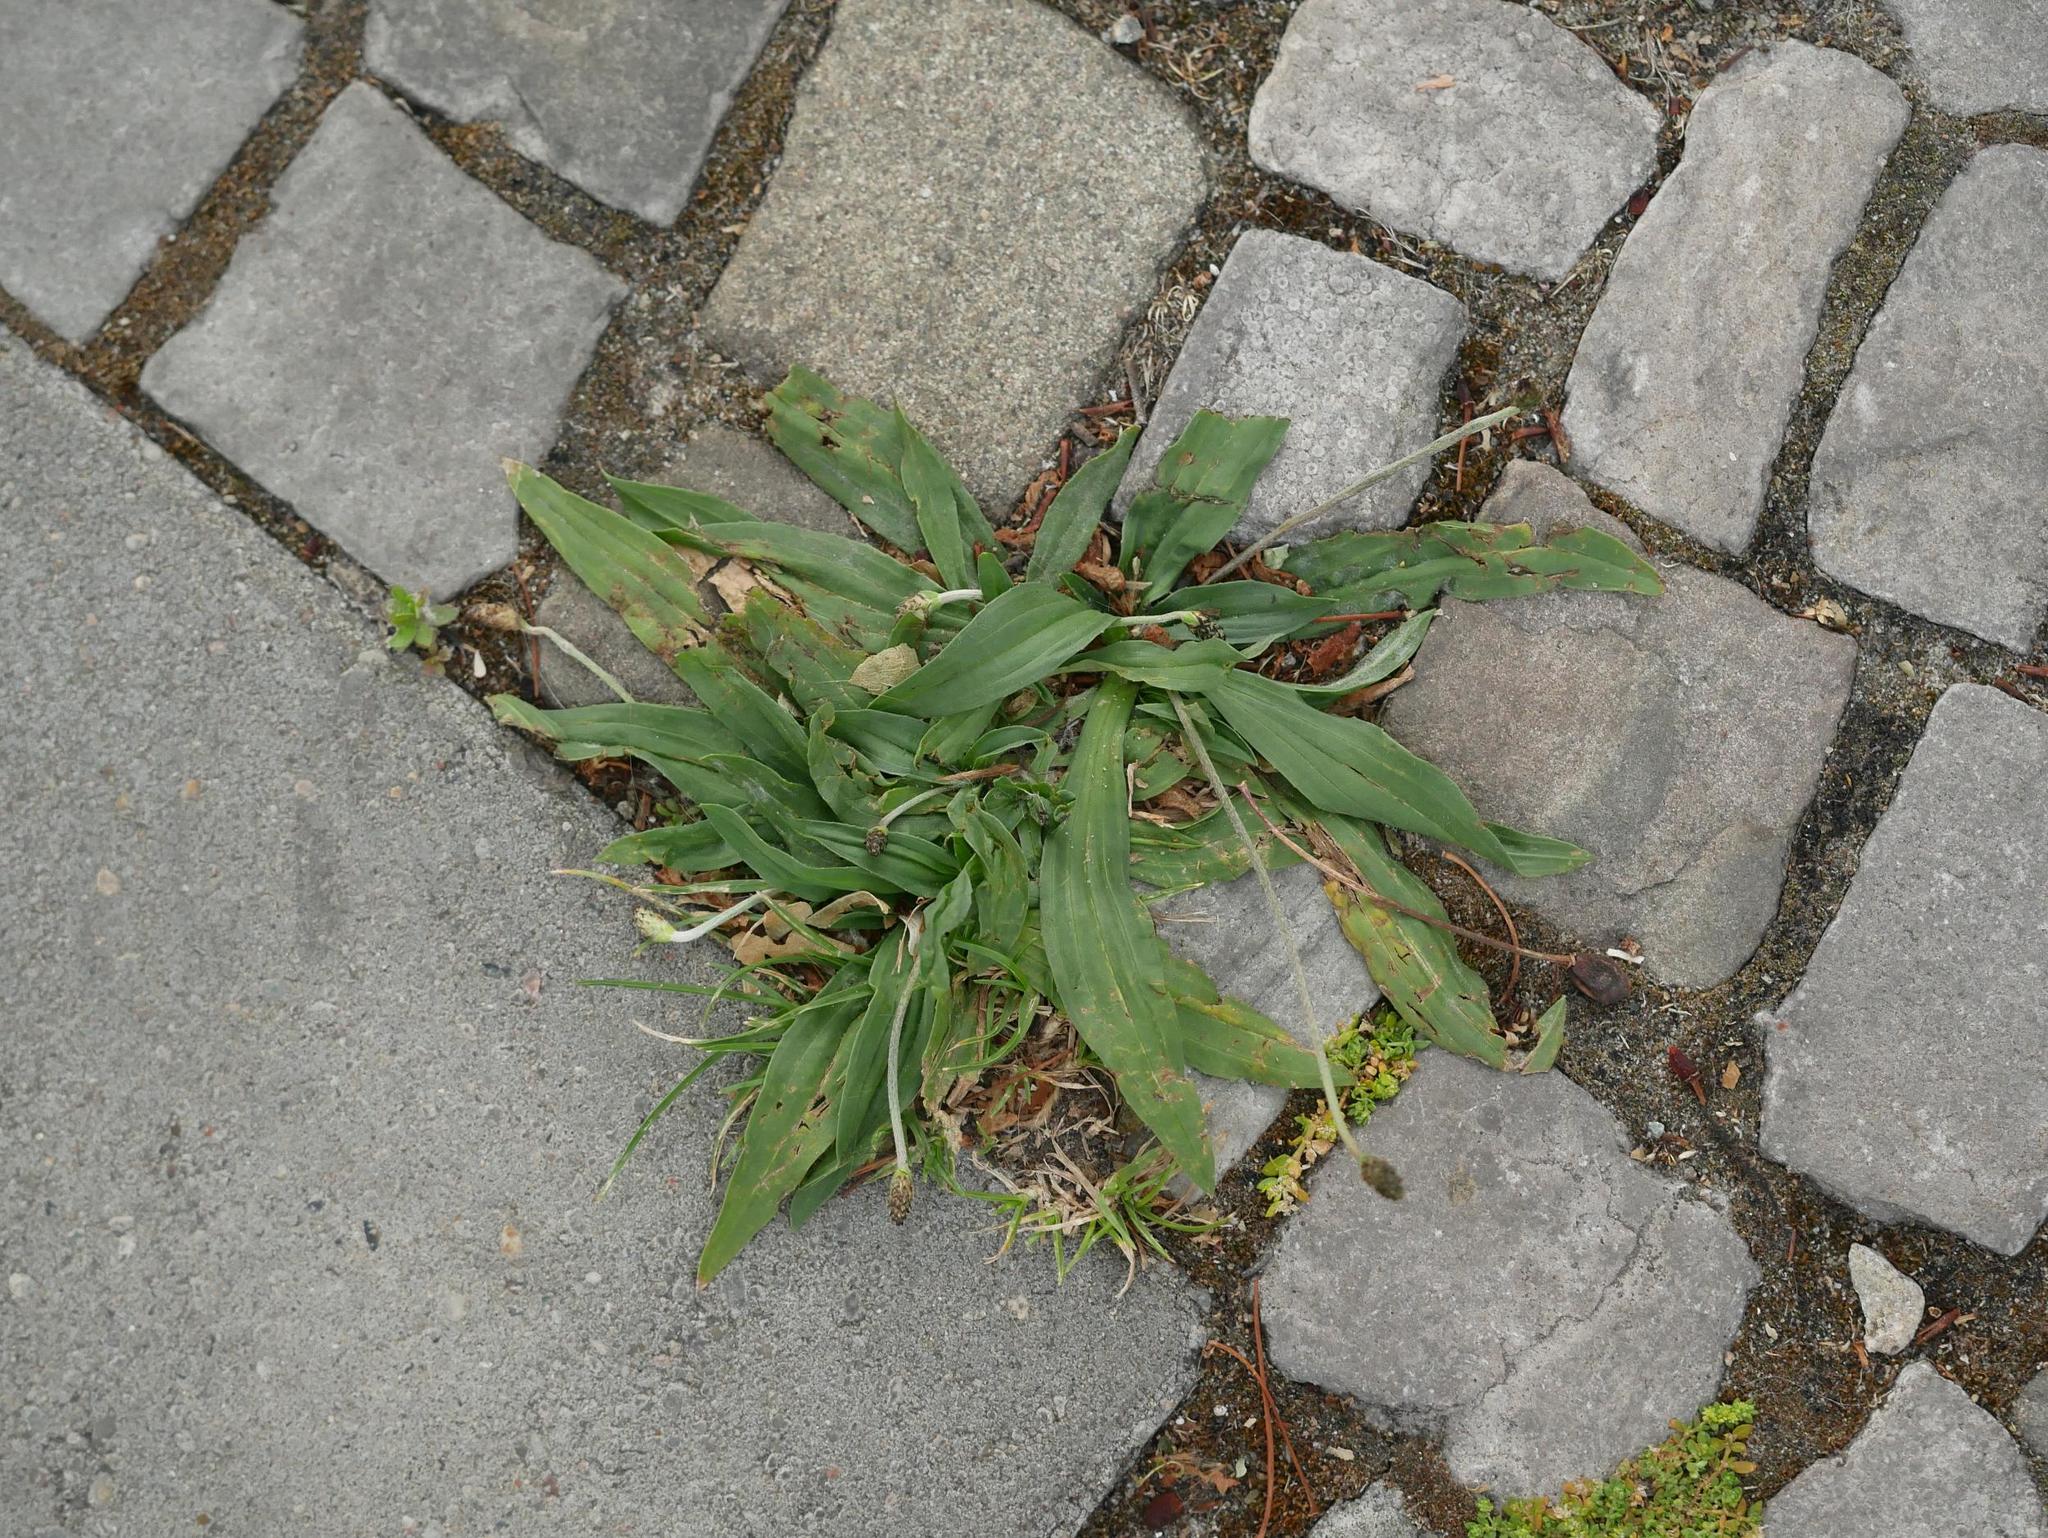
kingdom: Plantae
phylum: Tracheophyta
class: Magnoliopsida
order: Lamiales
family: Plantaginaceae
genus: Plantago
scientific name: Plantago lanceolata
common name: Ribwort plantain
